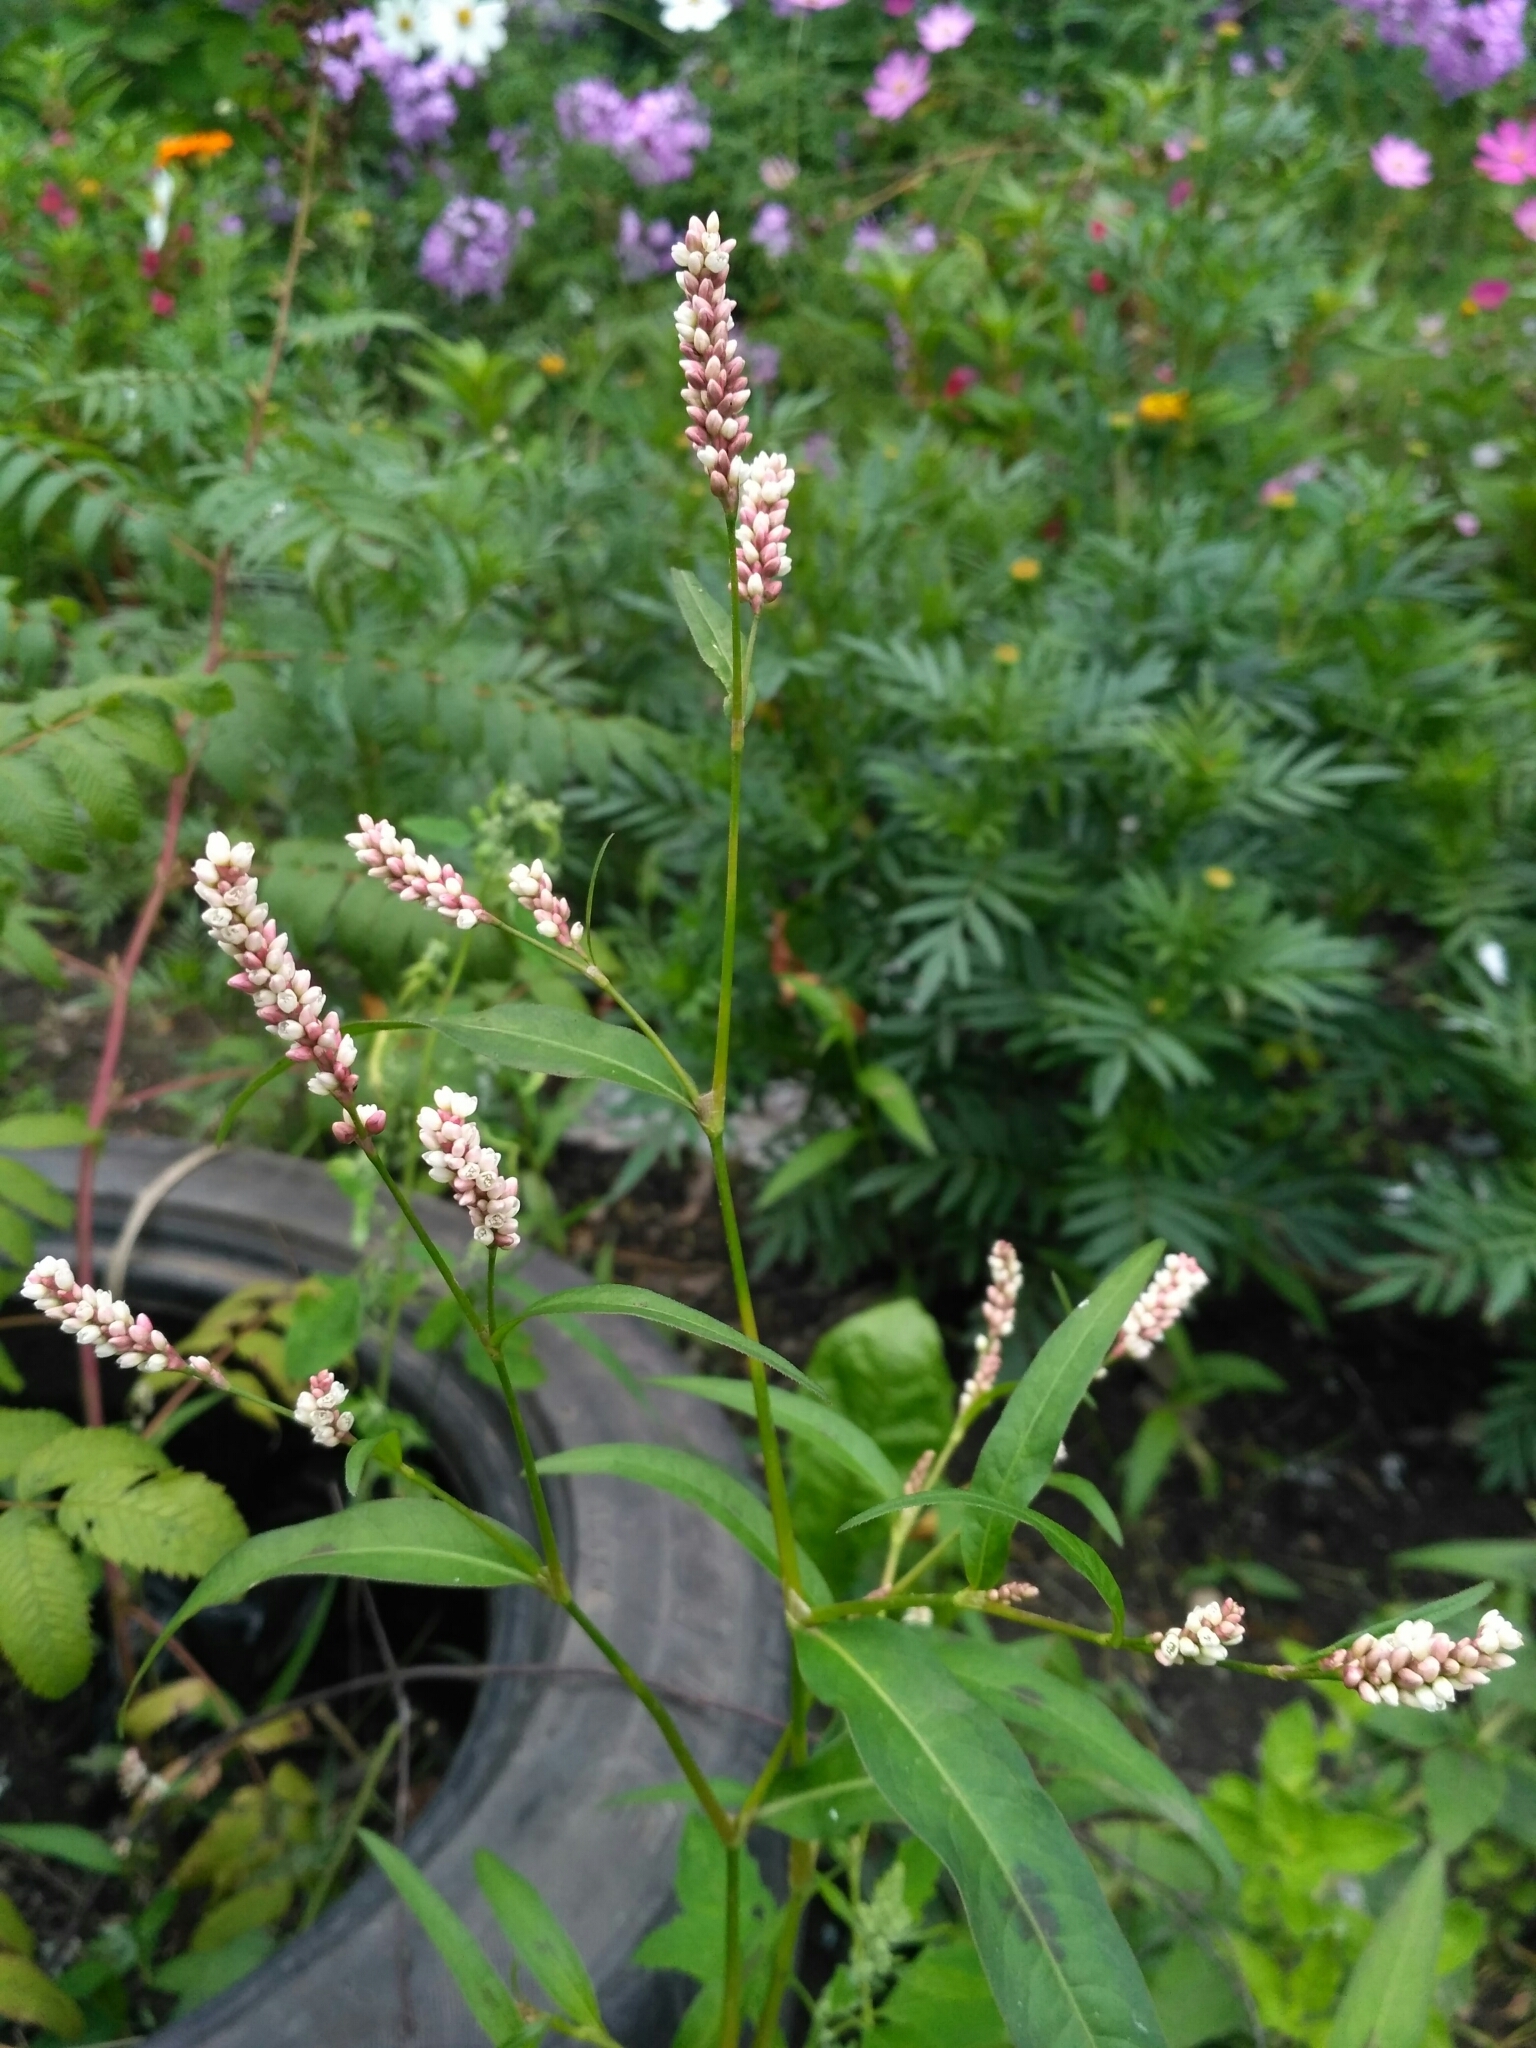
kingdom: Plantae
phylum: Tracheophyta
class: Magnoliopsida
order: Caryophyllales
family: Polygonaceae
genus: Persicaria
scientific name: Persicaria lapathifolia
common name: Curlytop knotweed
